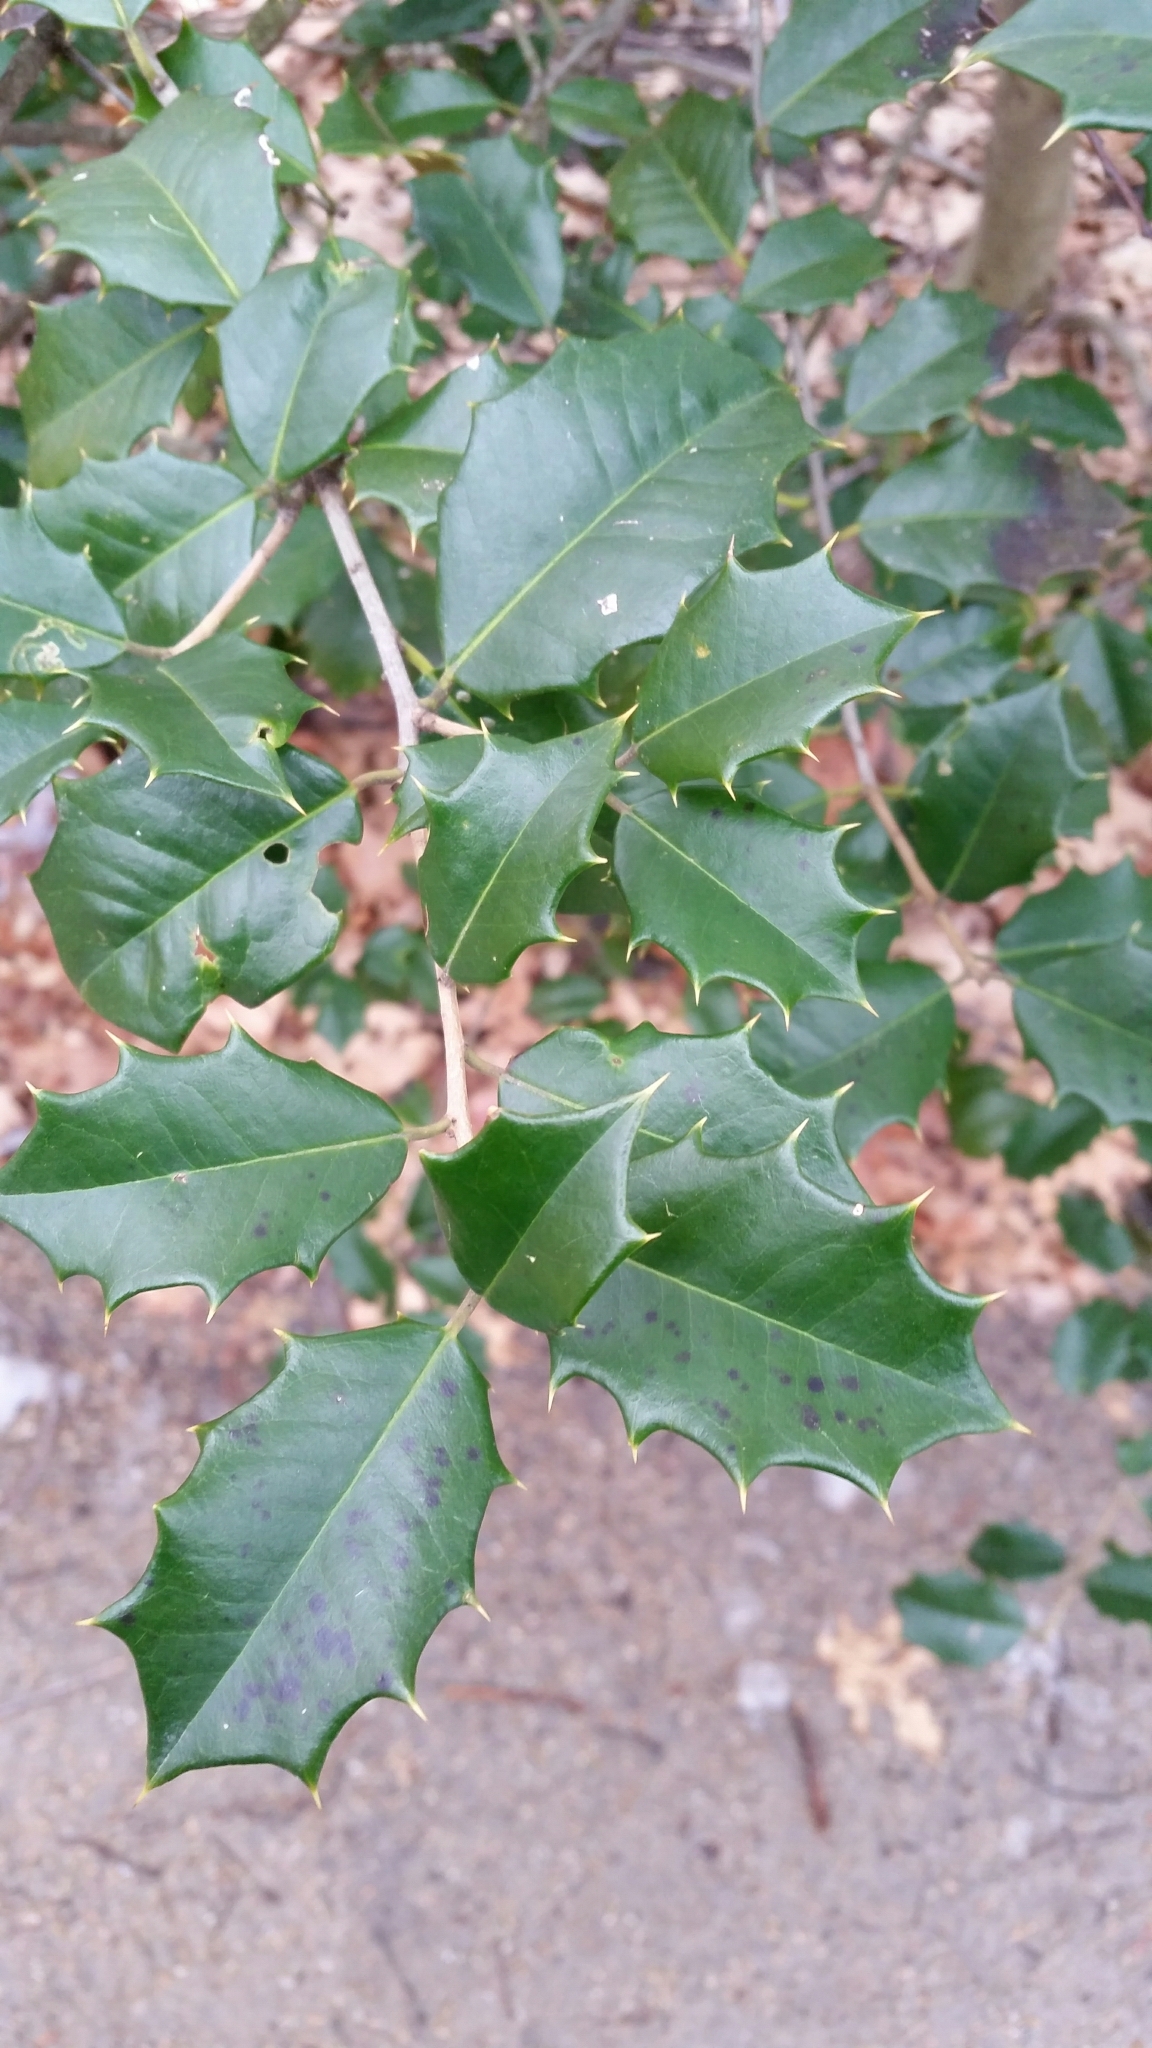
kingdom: Plantae
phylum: Tracheophyta
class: Magnoliopsida
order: Aquifoliales
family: Aquifoliaceae
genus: Ilex
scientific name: Ilex opaca
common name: American holly
